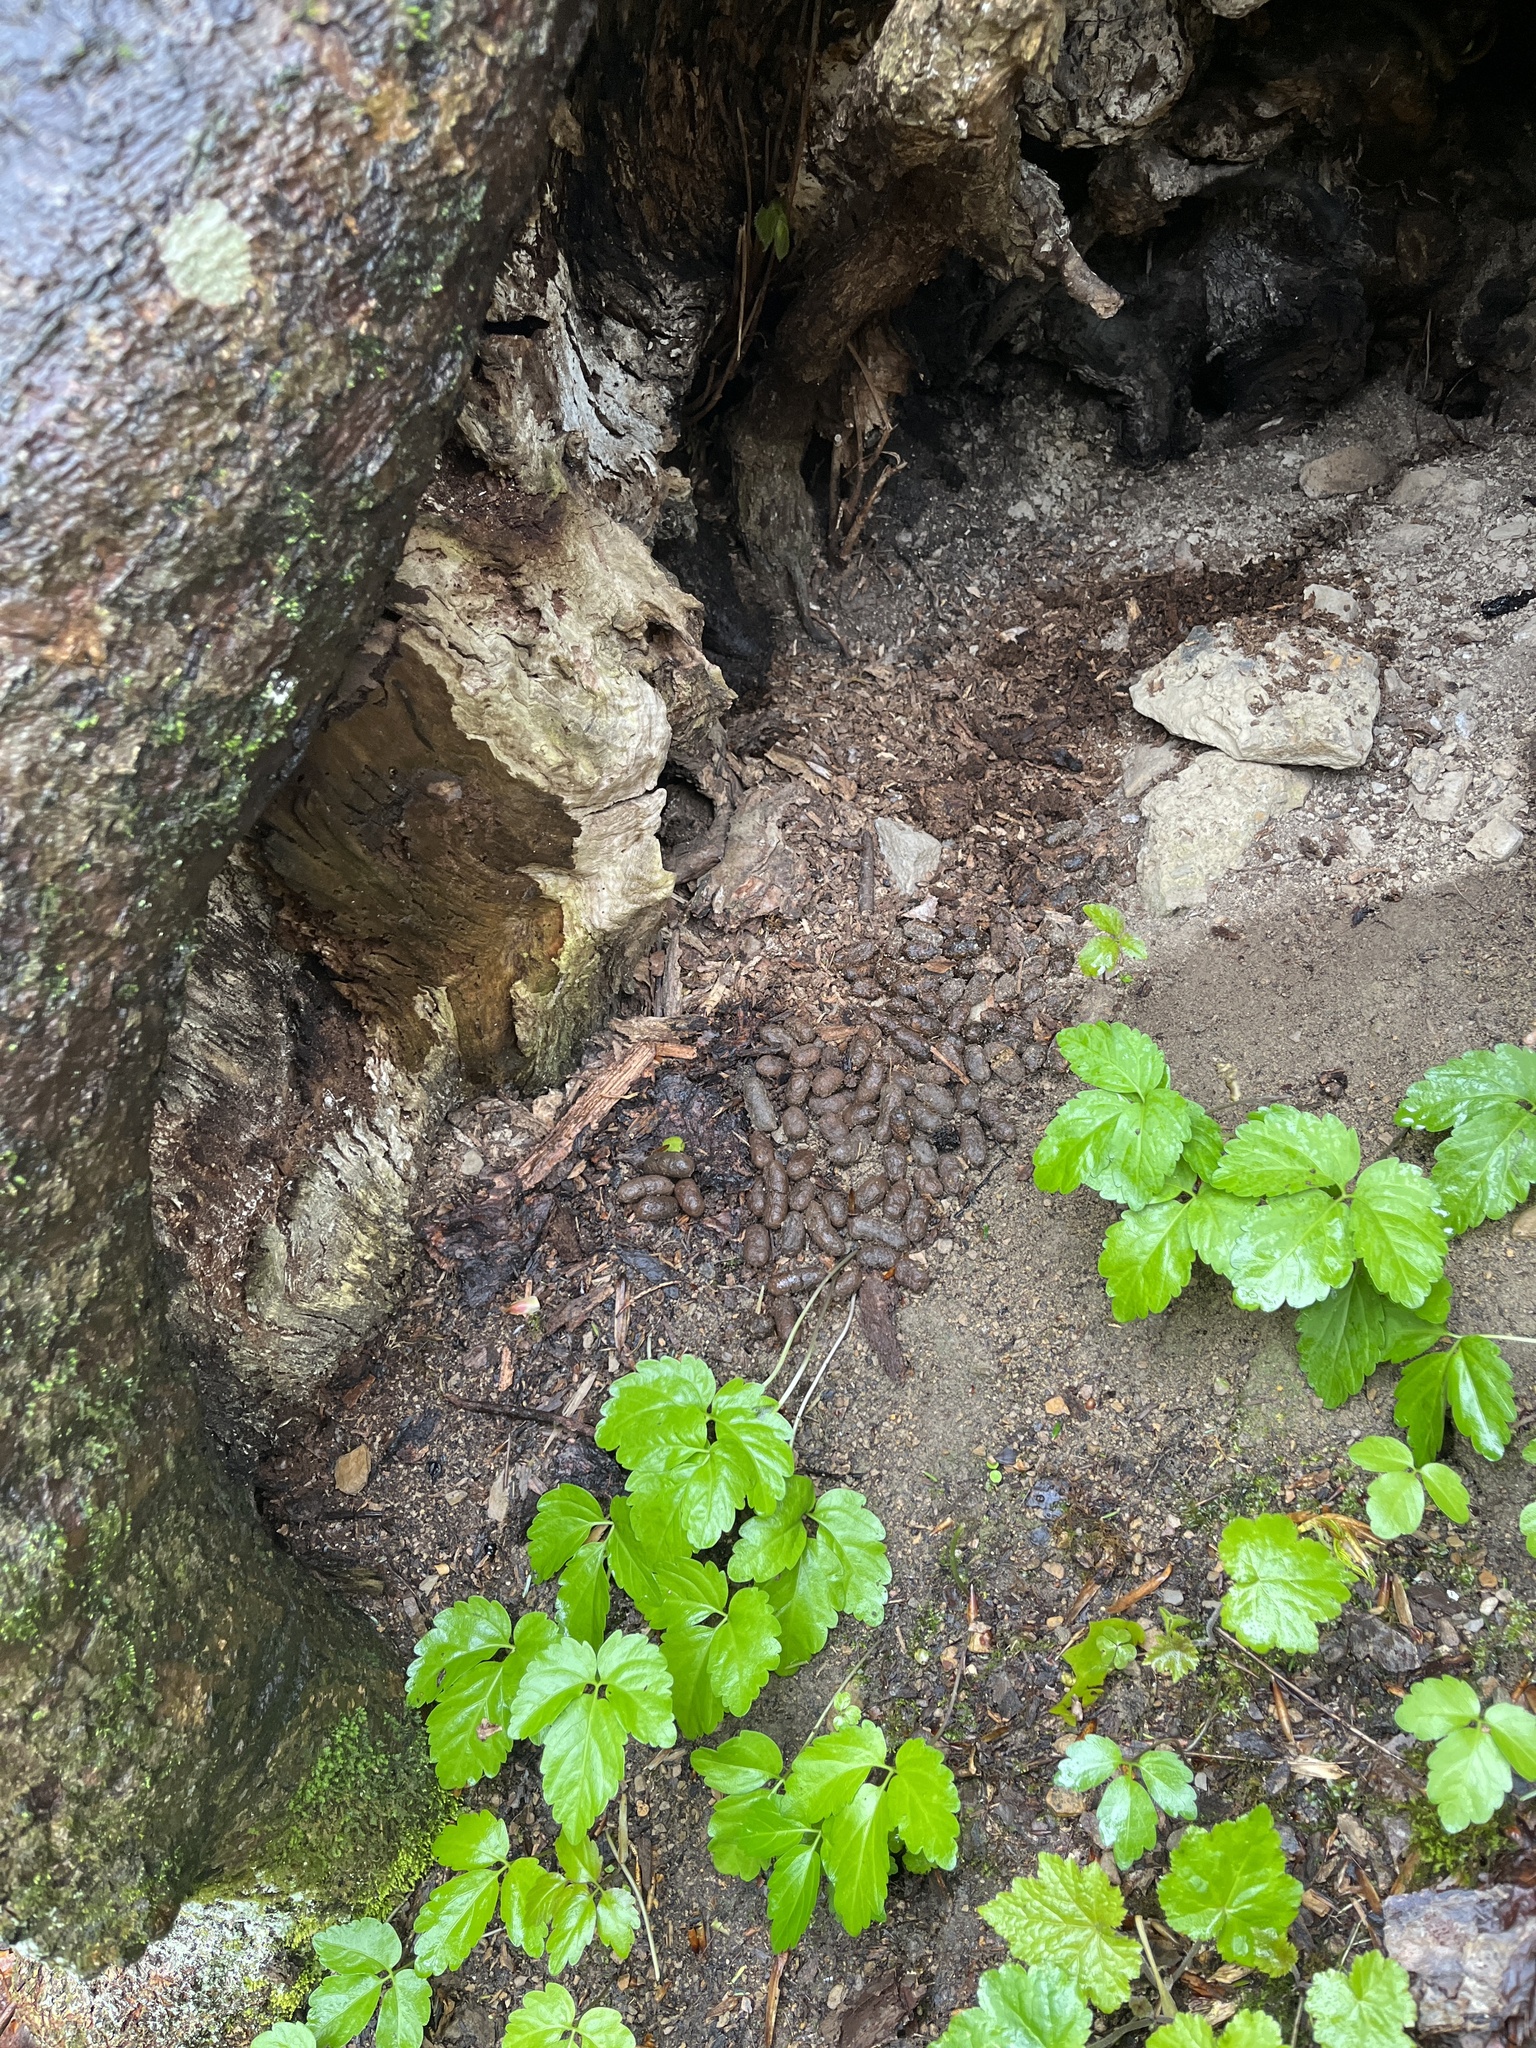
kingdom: Animalia
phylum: Chordata
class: Mammalia
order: Rodentia
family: Erethizontidae
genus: Erethizon
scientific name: Erethizon dorsatus
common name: North american porcupine
